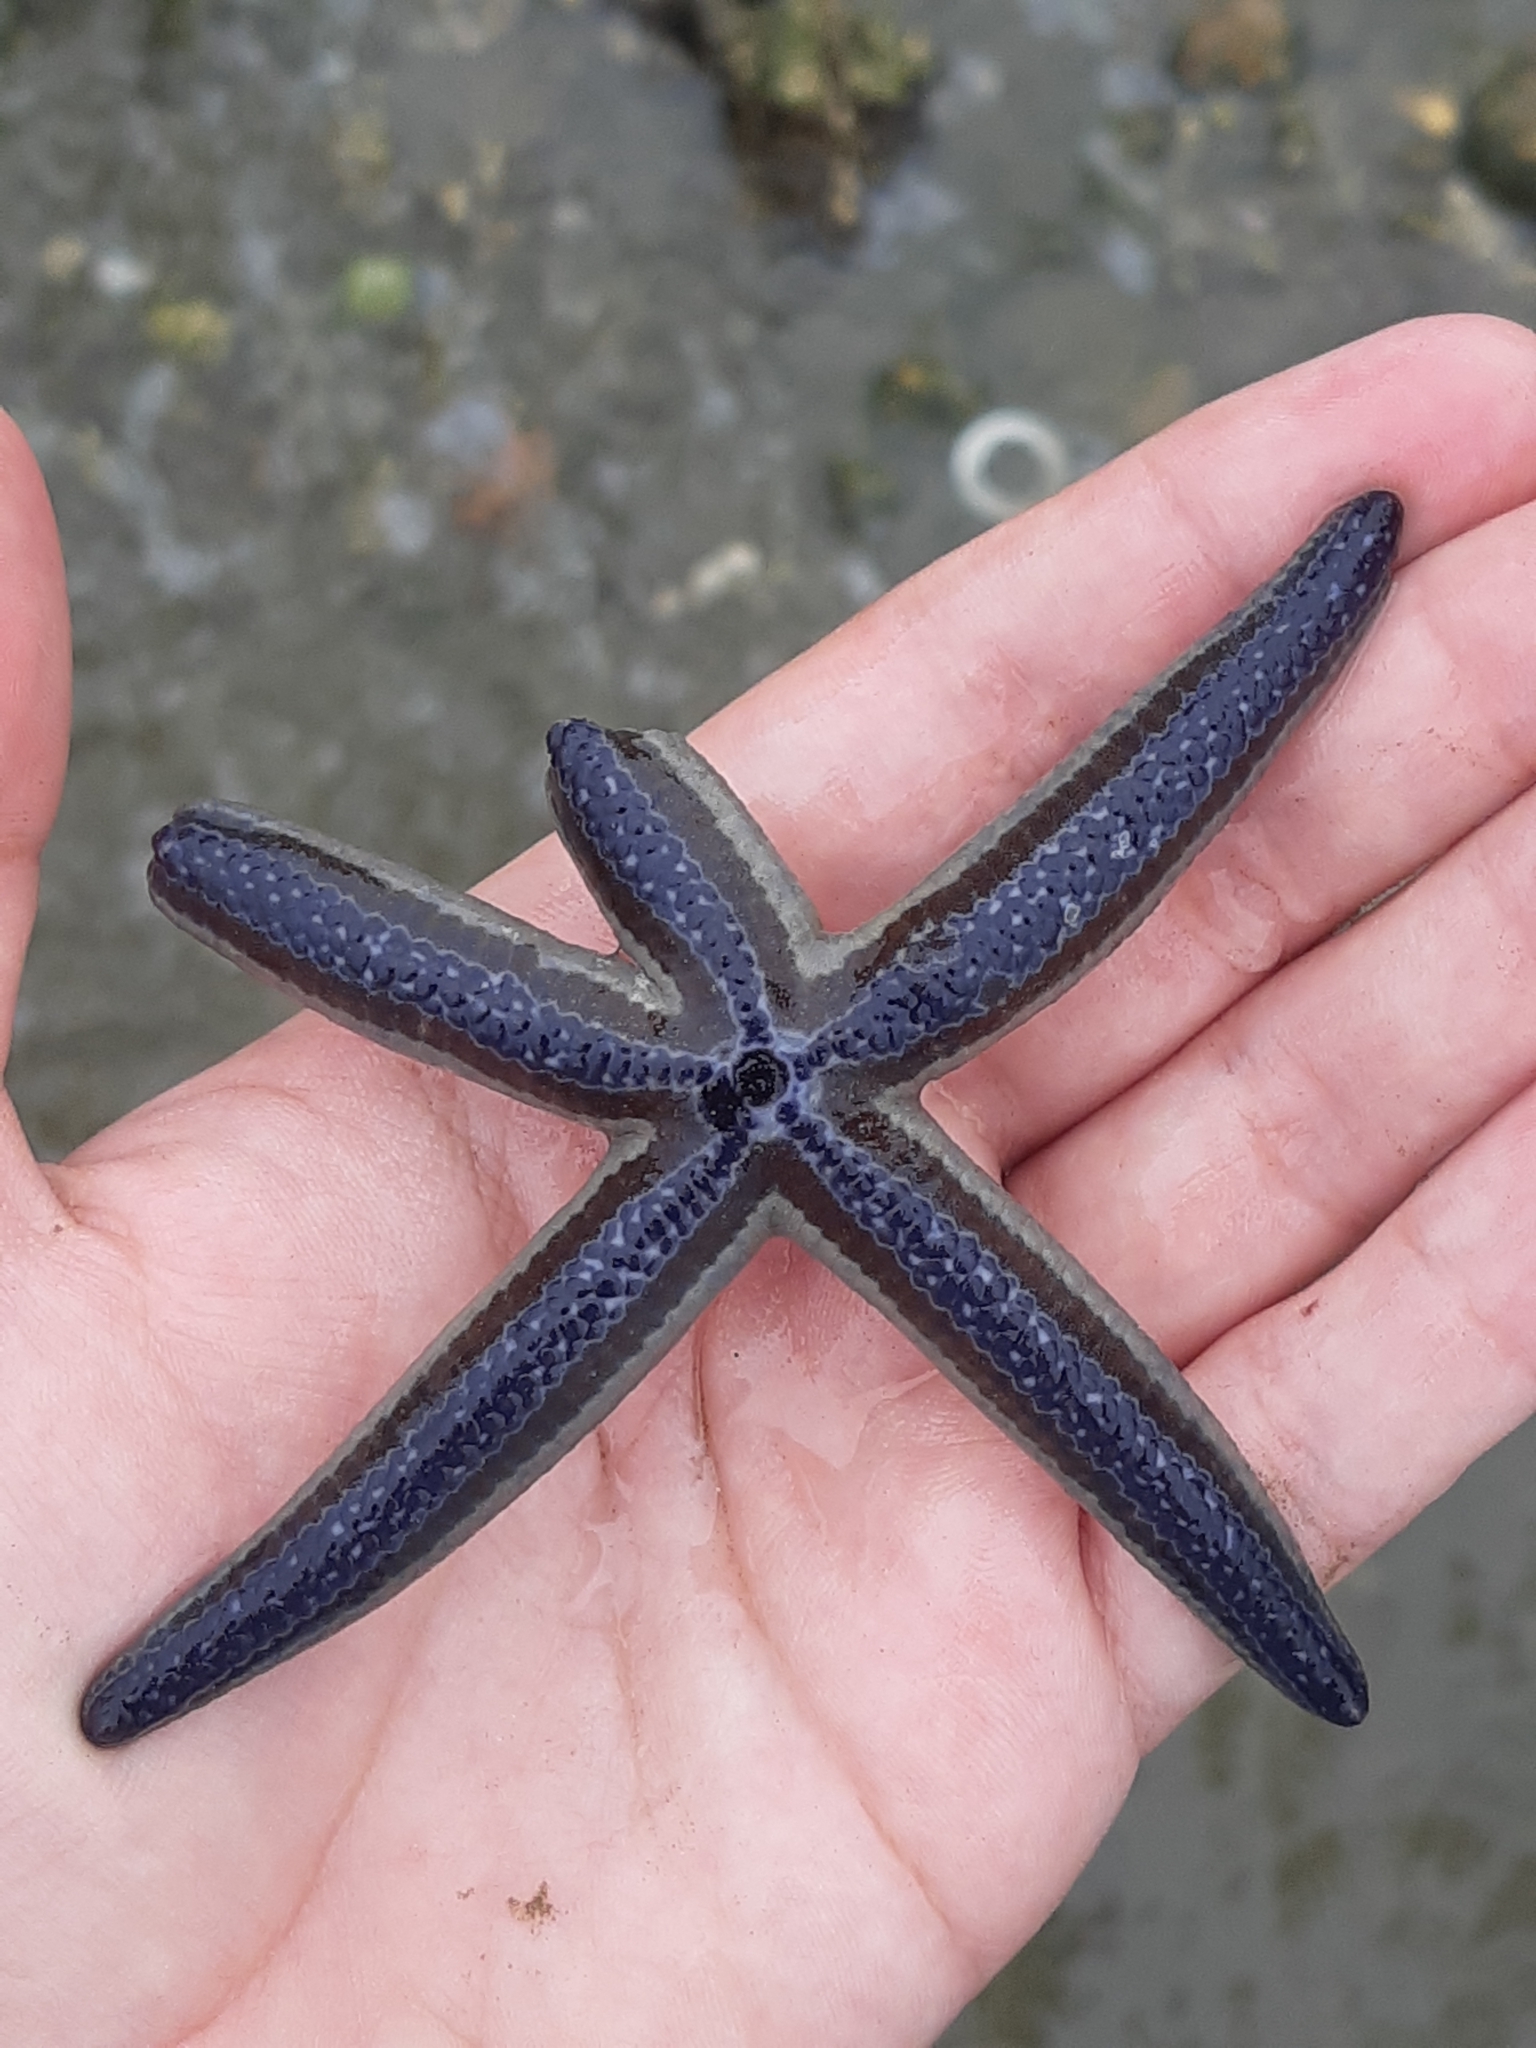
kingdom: Animalia
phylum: Echinodermata
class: Asteroidea
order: Valvatida
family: Ophidiasteridae
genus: Phataria
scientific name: Phataria unifascialis
